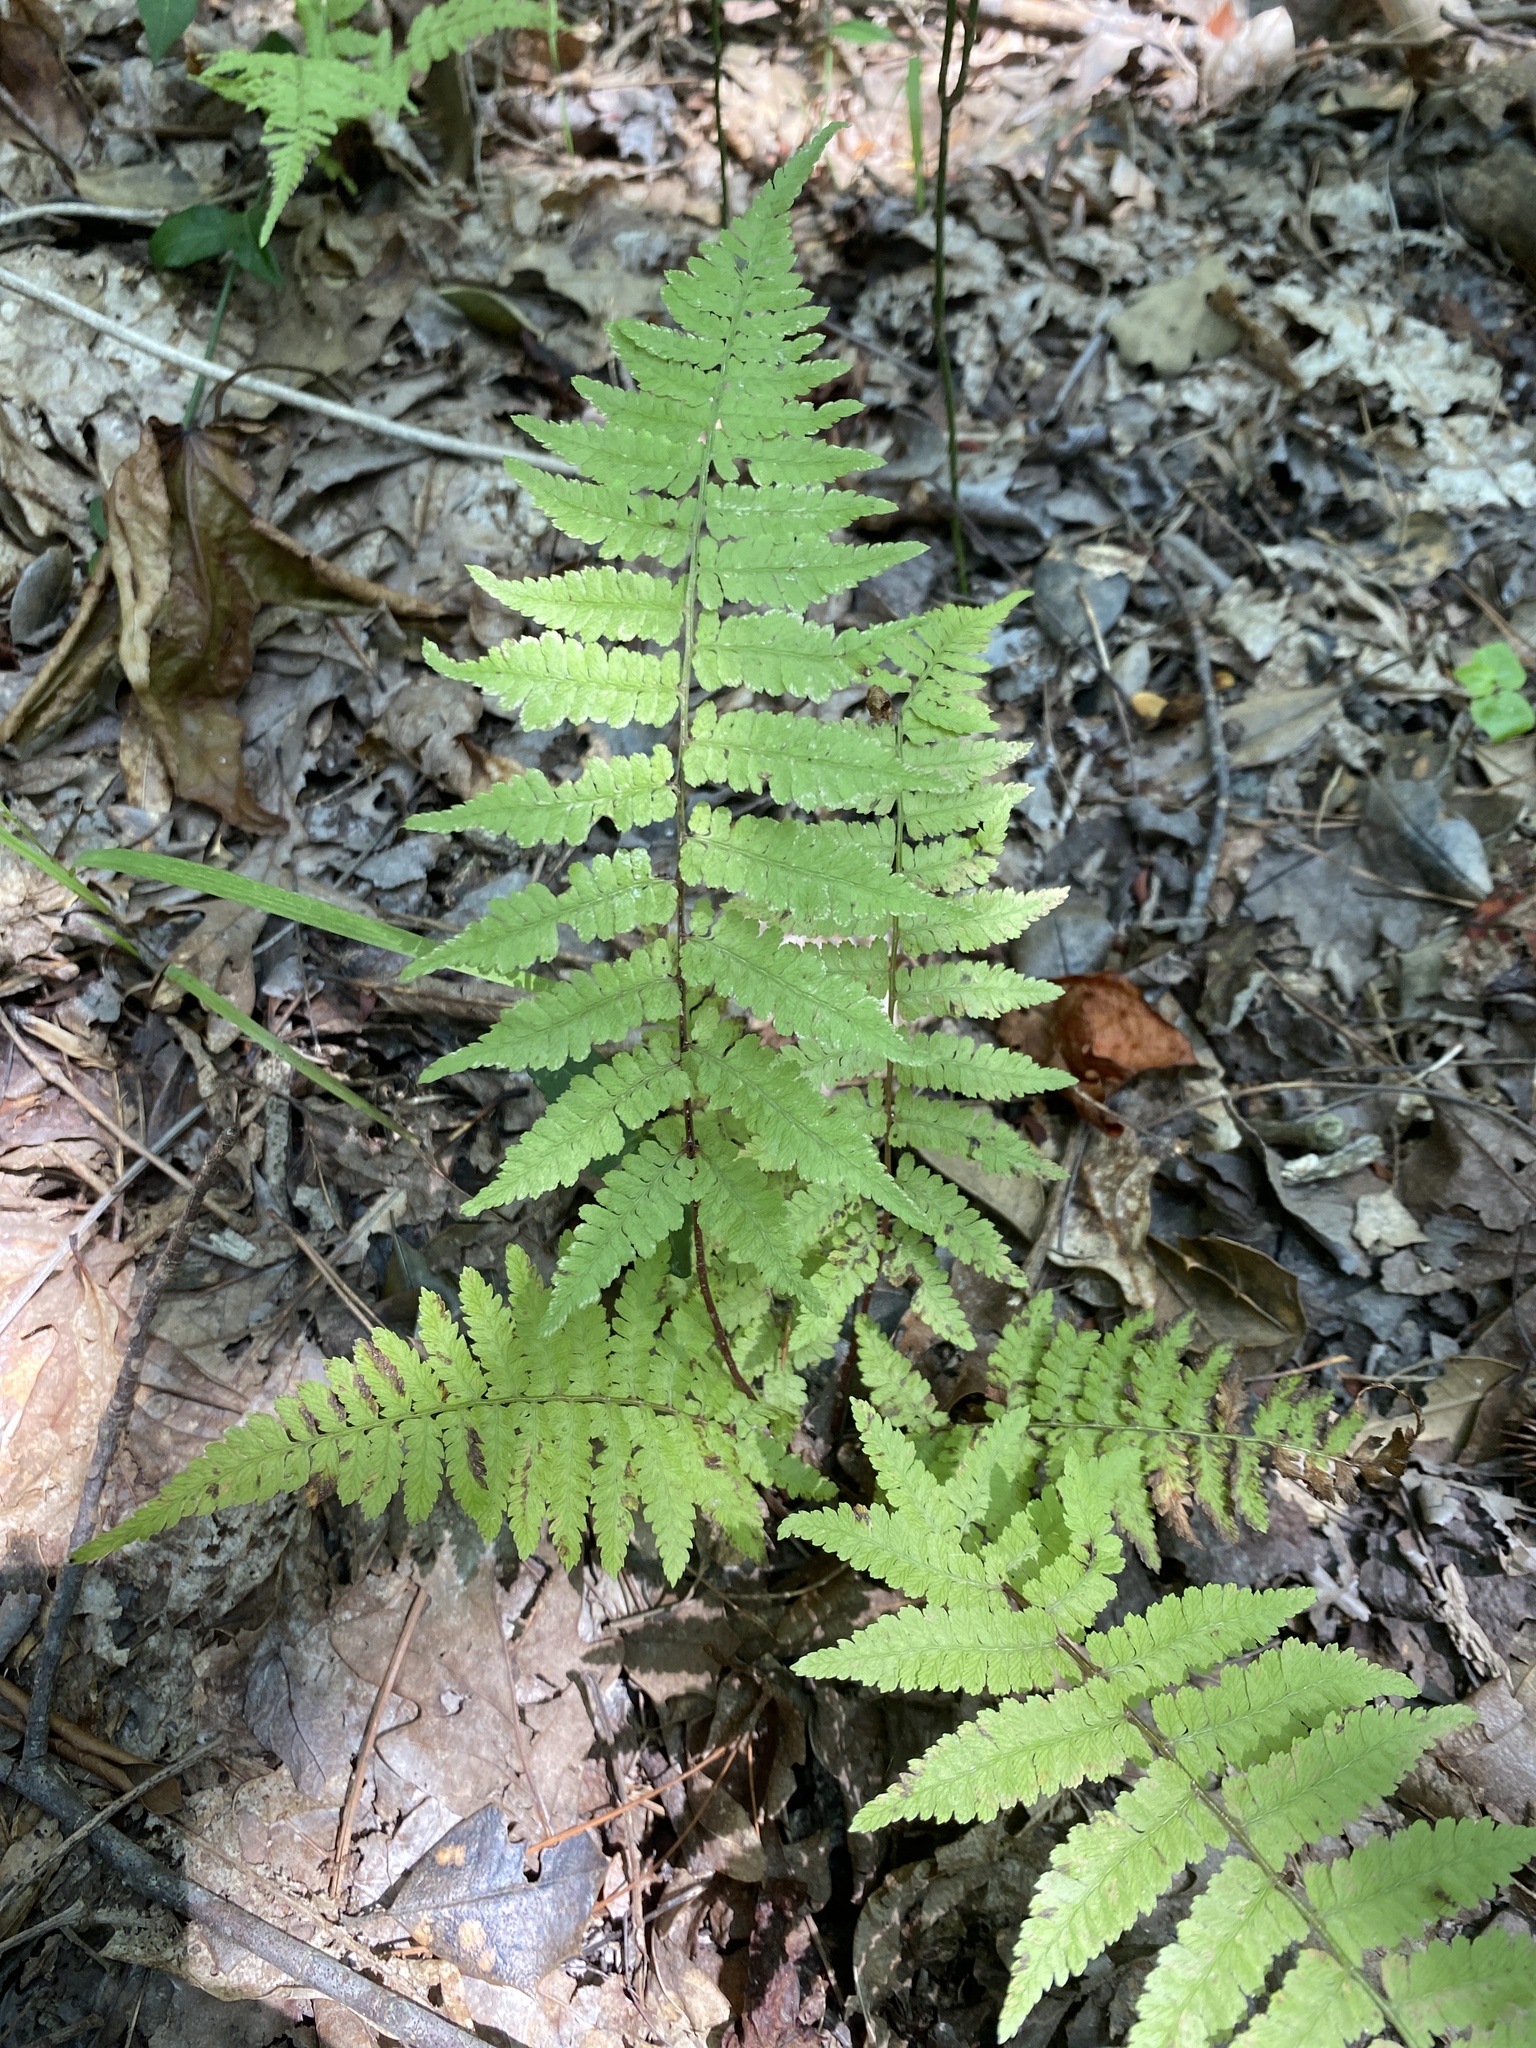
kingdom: Plantae
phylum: Tracheophyta
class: Polypodiopsida
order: Polypodiales
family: Athyriaceae
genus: Athyrium
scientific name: Athyrium asplenioides
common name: Southern lady fern
